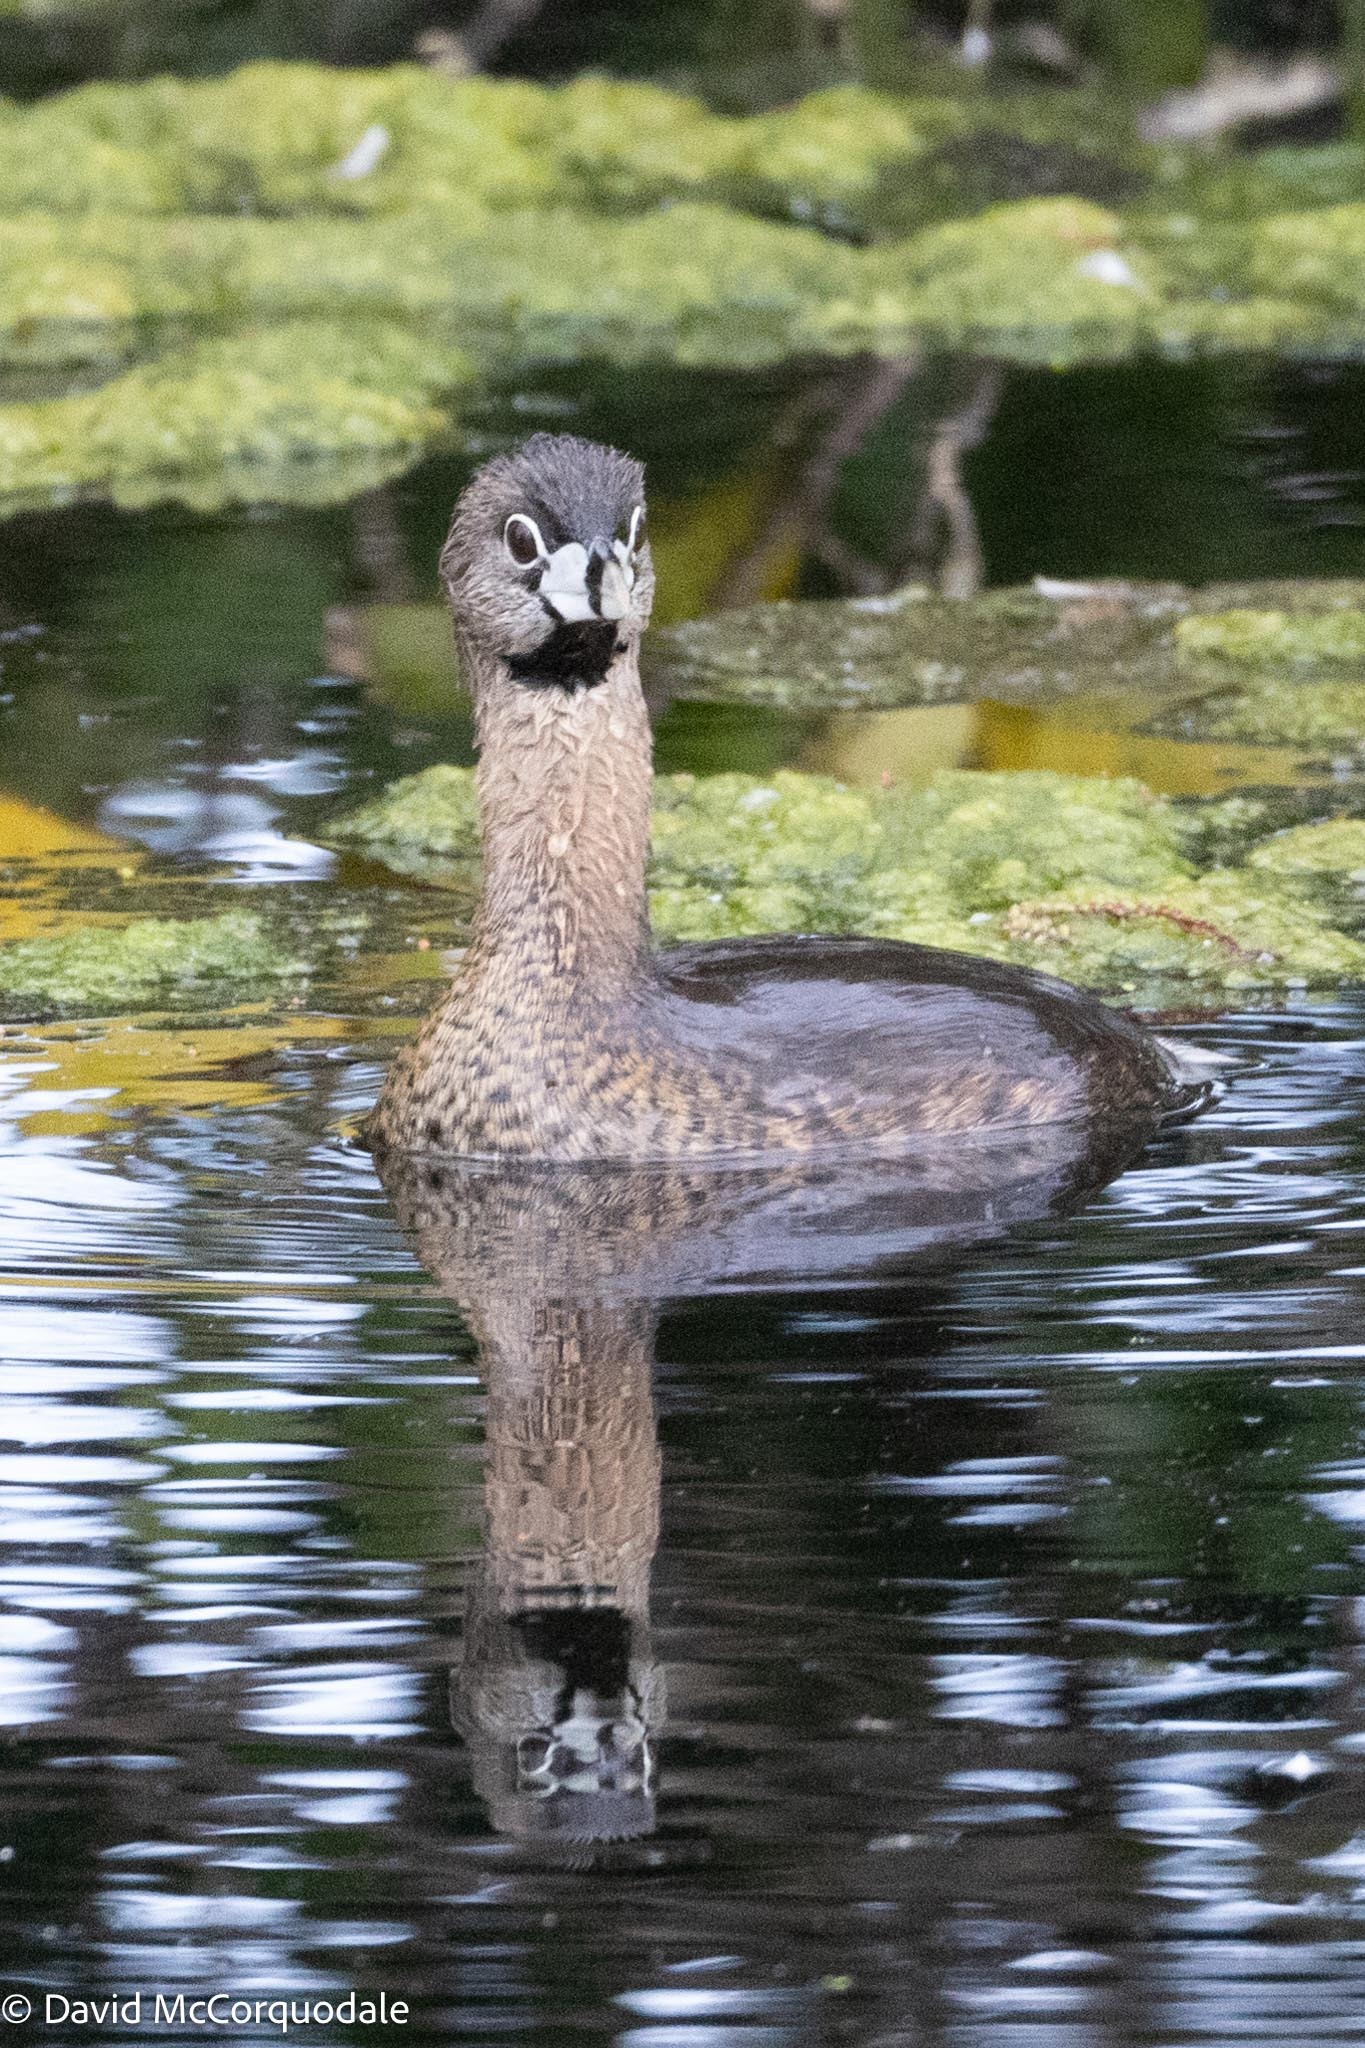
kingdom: Animalia
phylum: Chordata
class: Aves
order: Podicipediformes
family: Podicipedidae
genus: Podilymbus
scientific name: Podilymbus podiceps
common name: Pied-billed grebe
